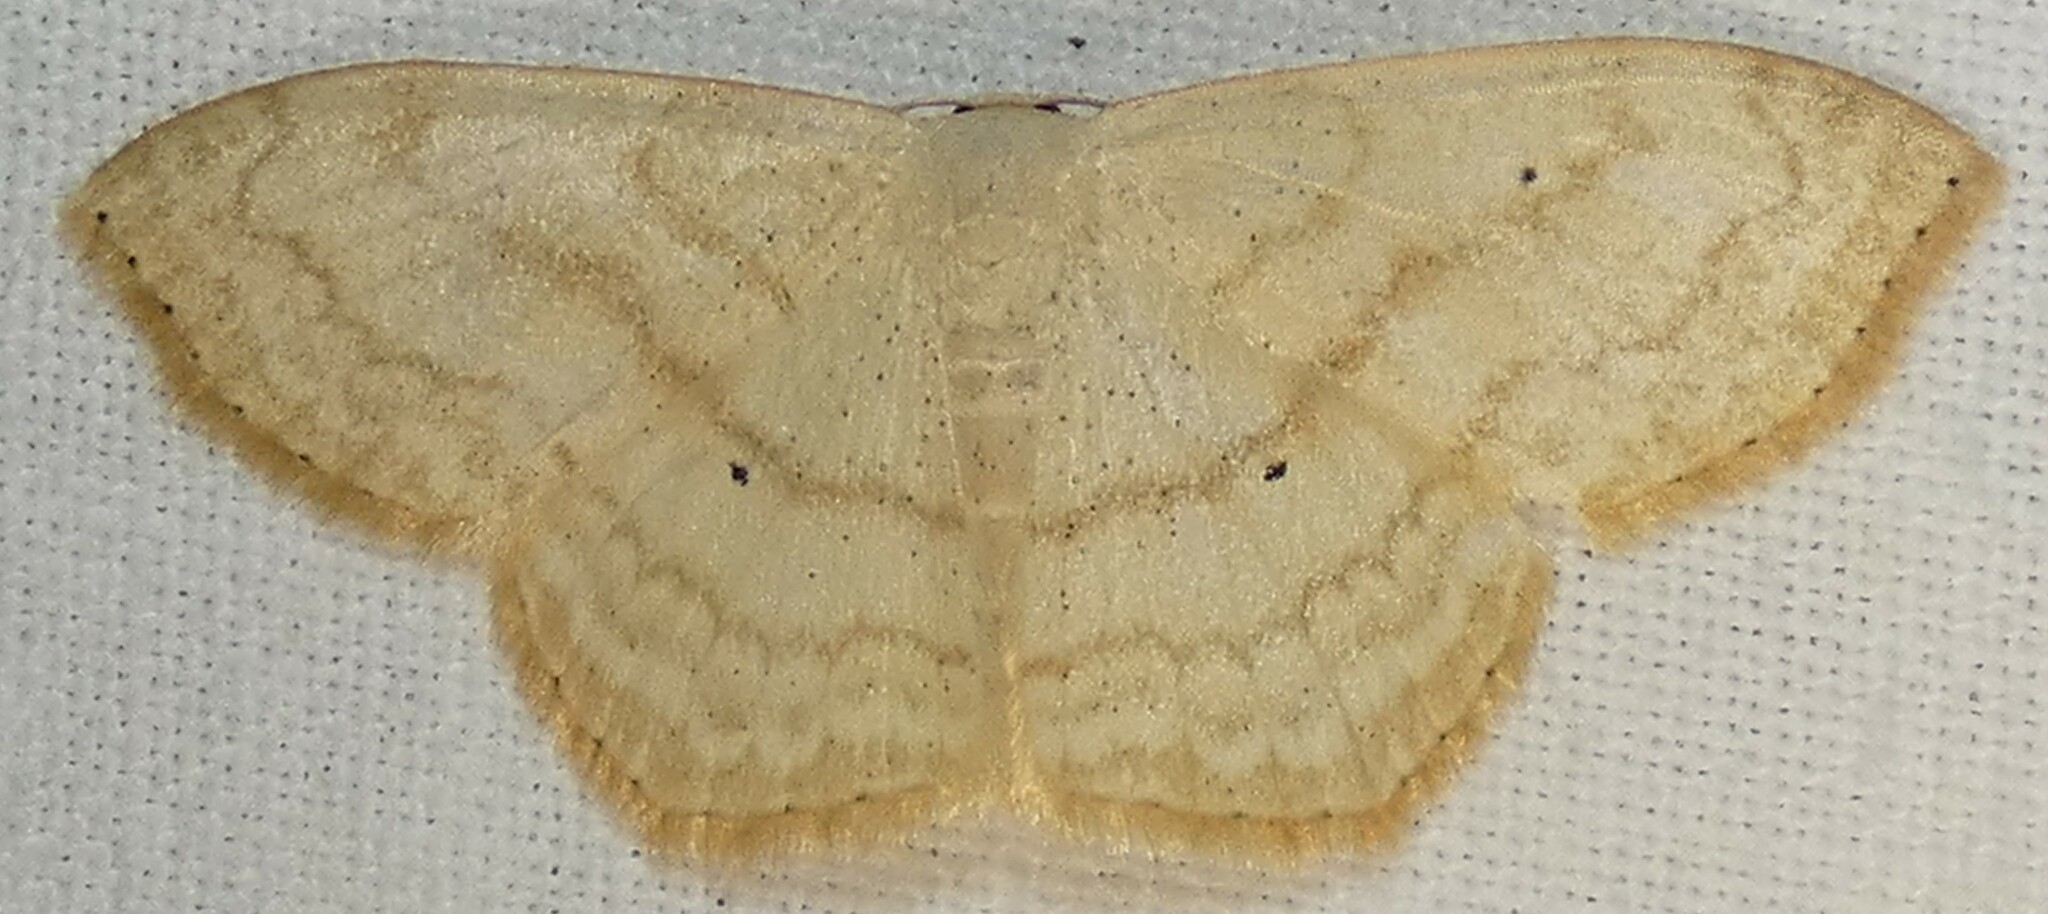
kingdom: Animalia
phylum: Arthropoda
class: Insecta
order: Lepidoptera
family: Geometridae
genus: Scopula
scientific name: Scopula limboundata
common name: Large lace border
